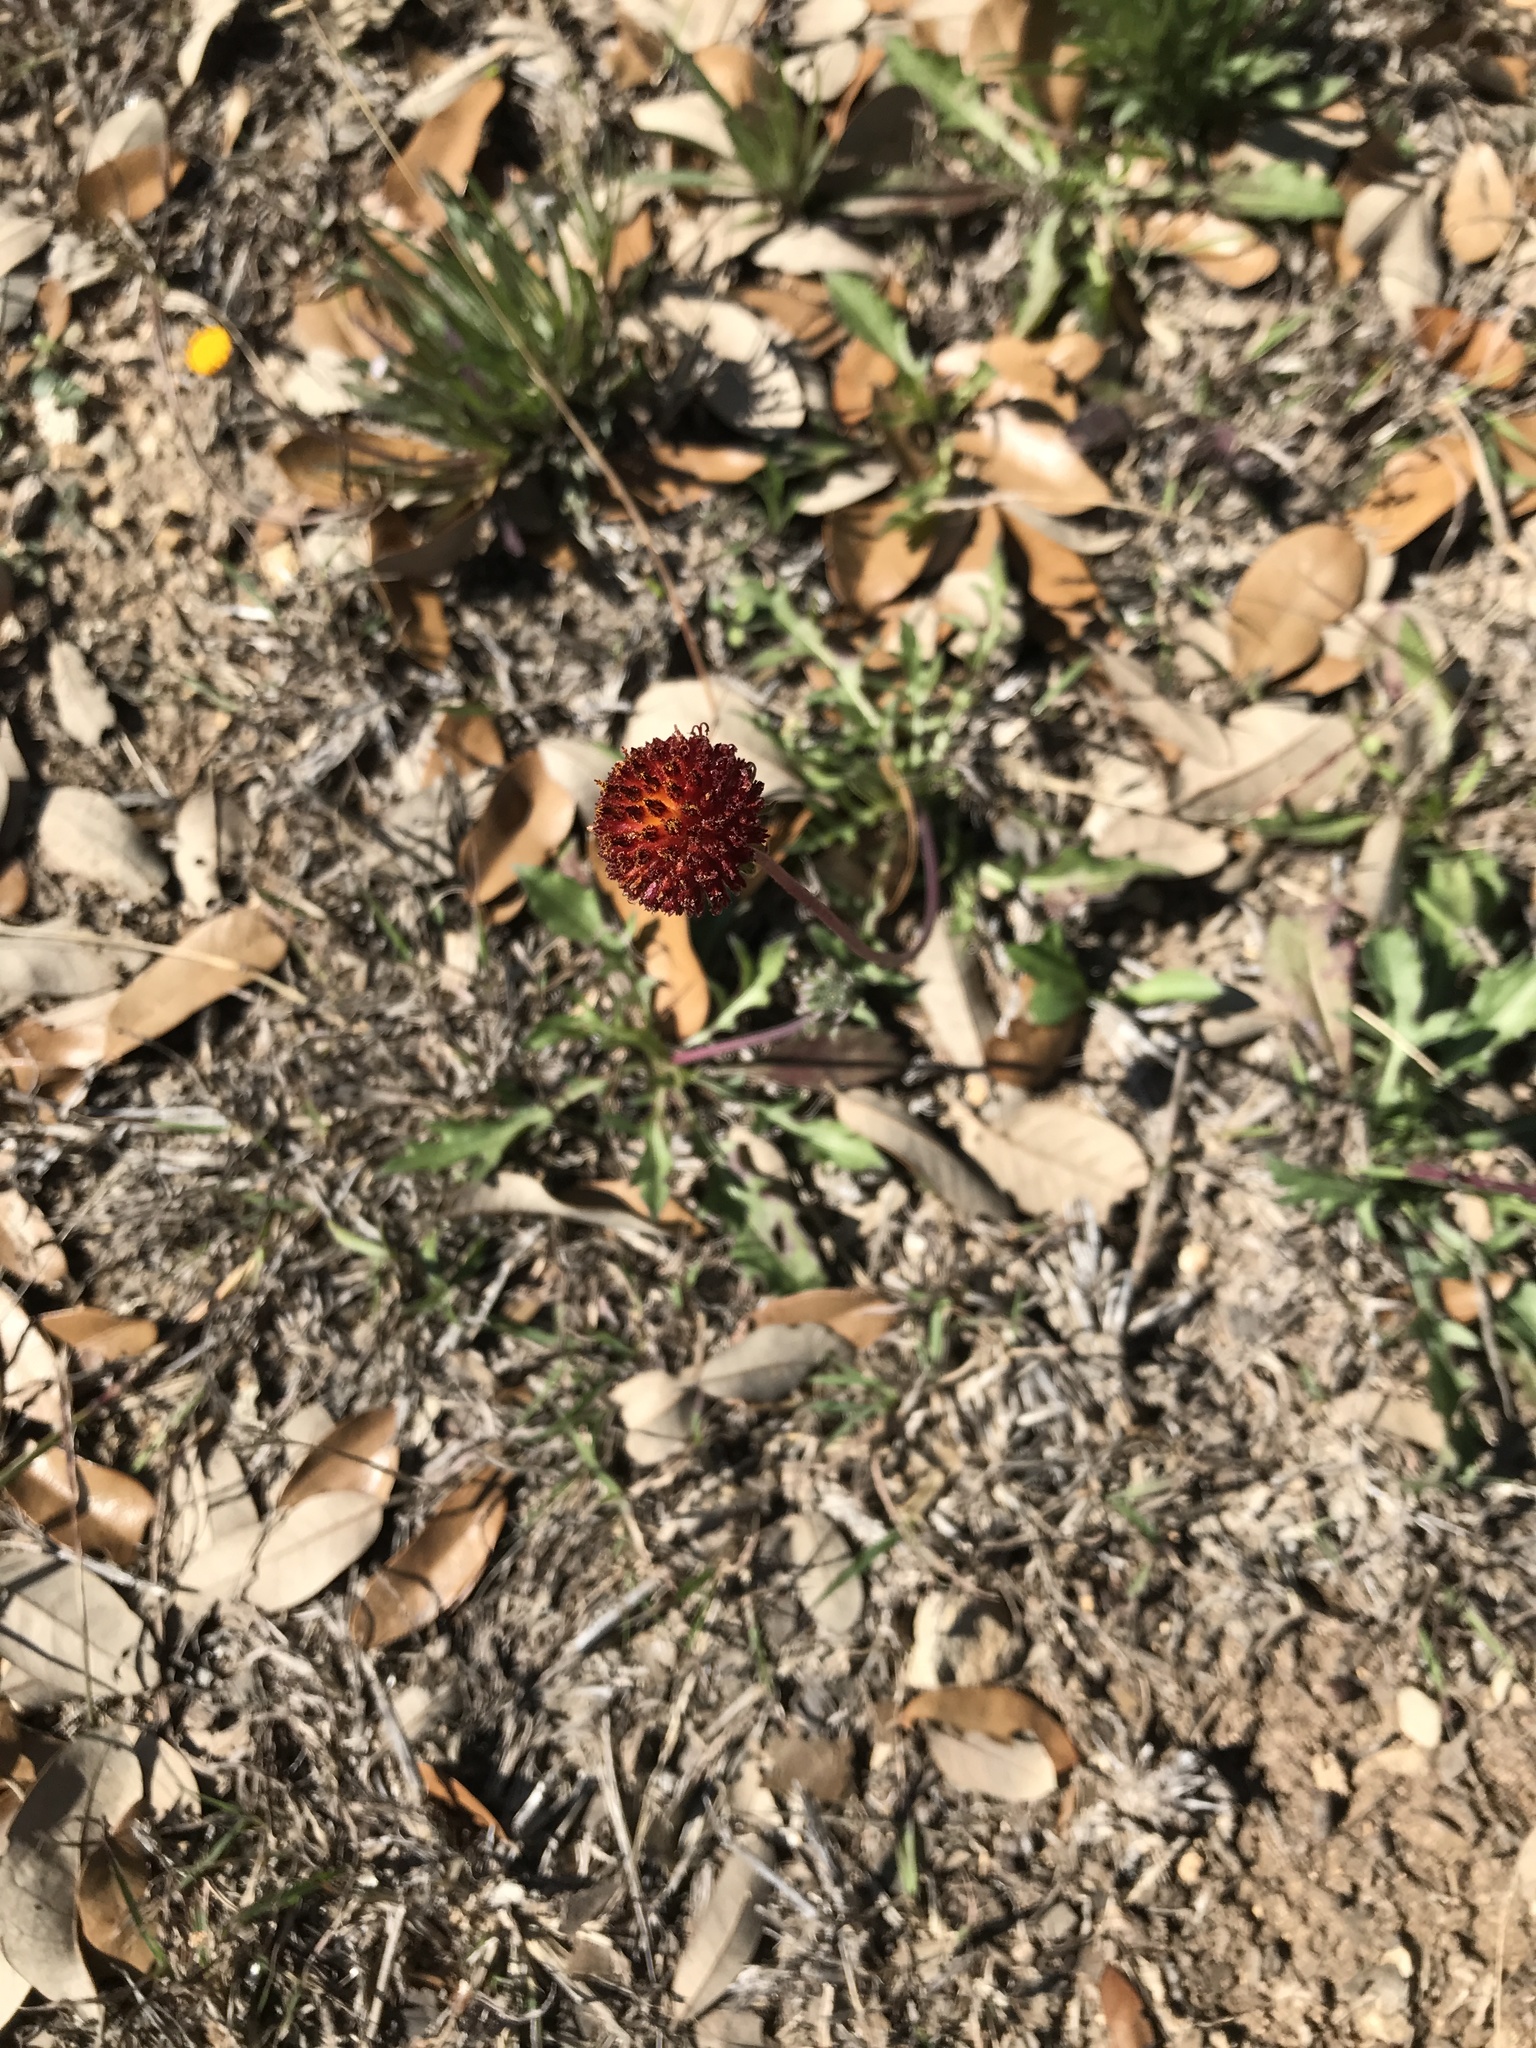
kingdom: Plantae
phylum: Tracheophyta
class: Magnoliopsida
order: Asterales
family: Asteraceae
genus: Gaillardia
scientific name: Gaillardia suavis
